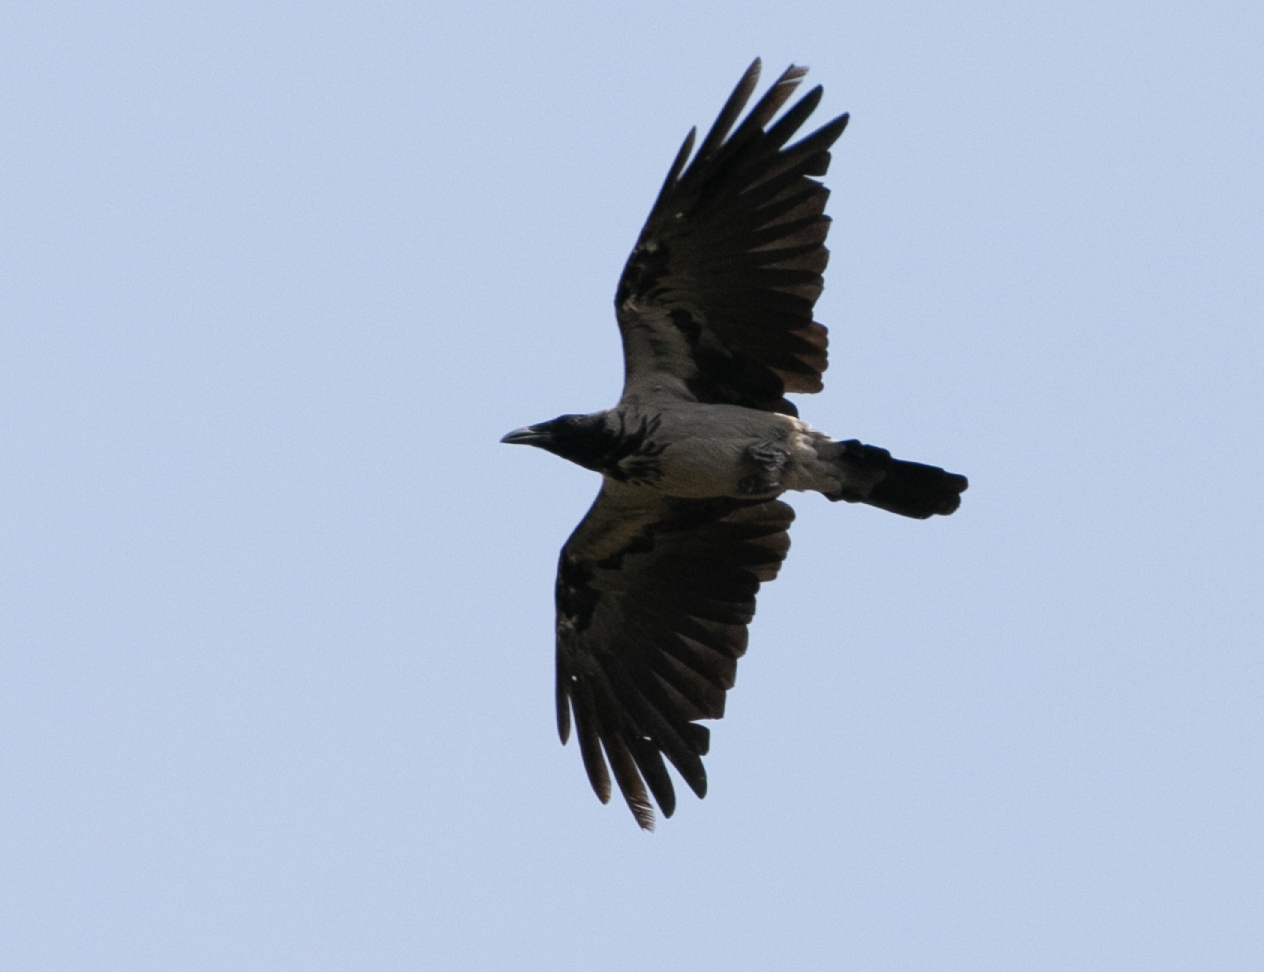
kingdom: Animalia
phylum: Chordata
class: Aves
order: Passeriformes
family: Corvidae
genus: Corvus
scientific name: Corvus cornix
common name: Hooded crow
